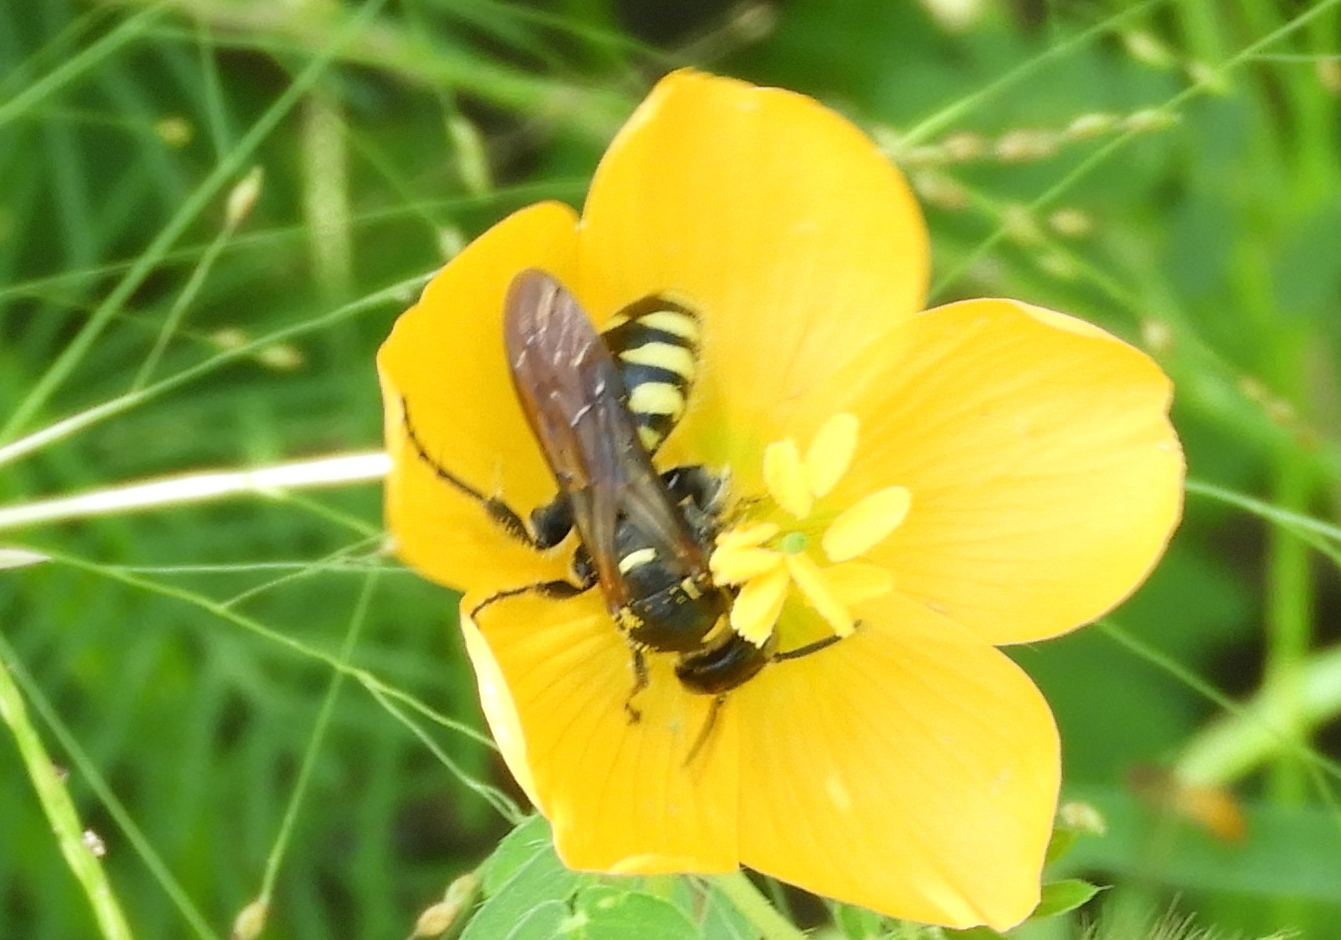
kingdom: Animalia
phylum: Arthropoda
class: Insecta
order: Hymenoptera
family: Tiphiidae
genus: Myzinum
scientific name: Myzinum
